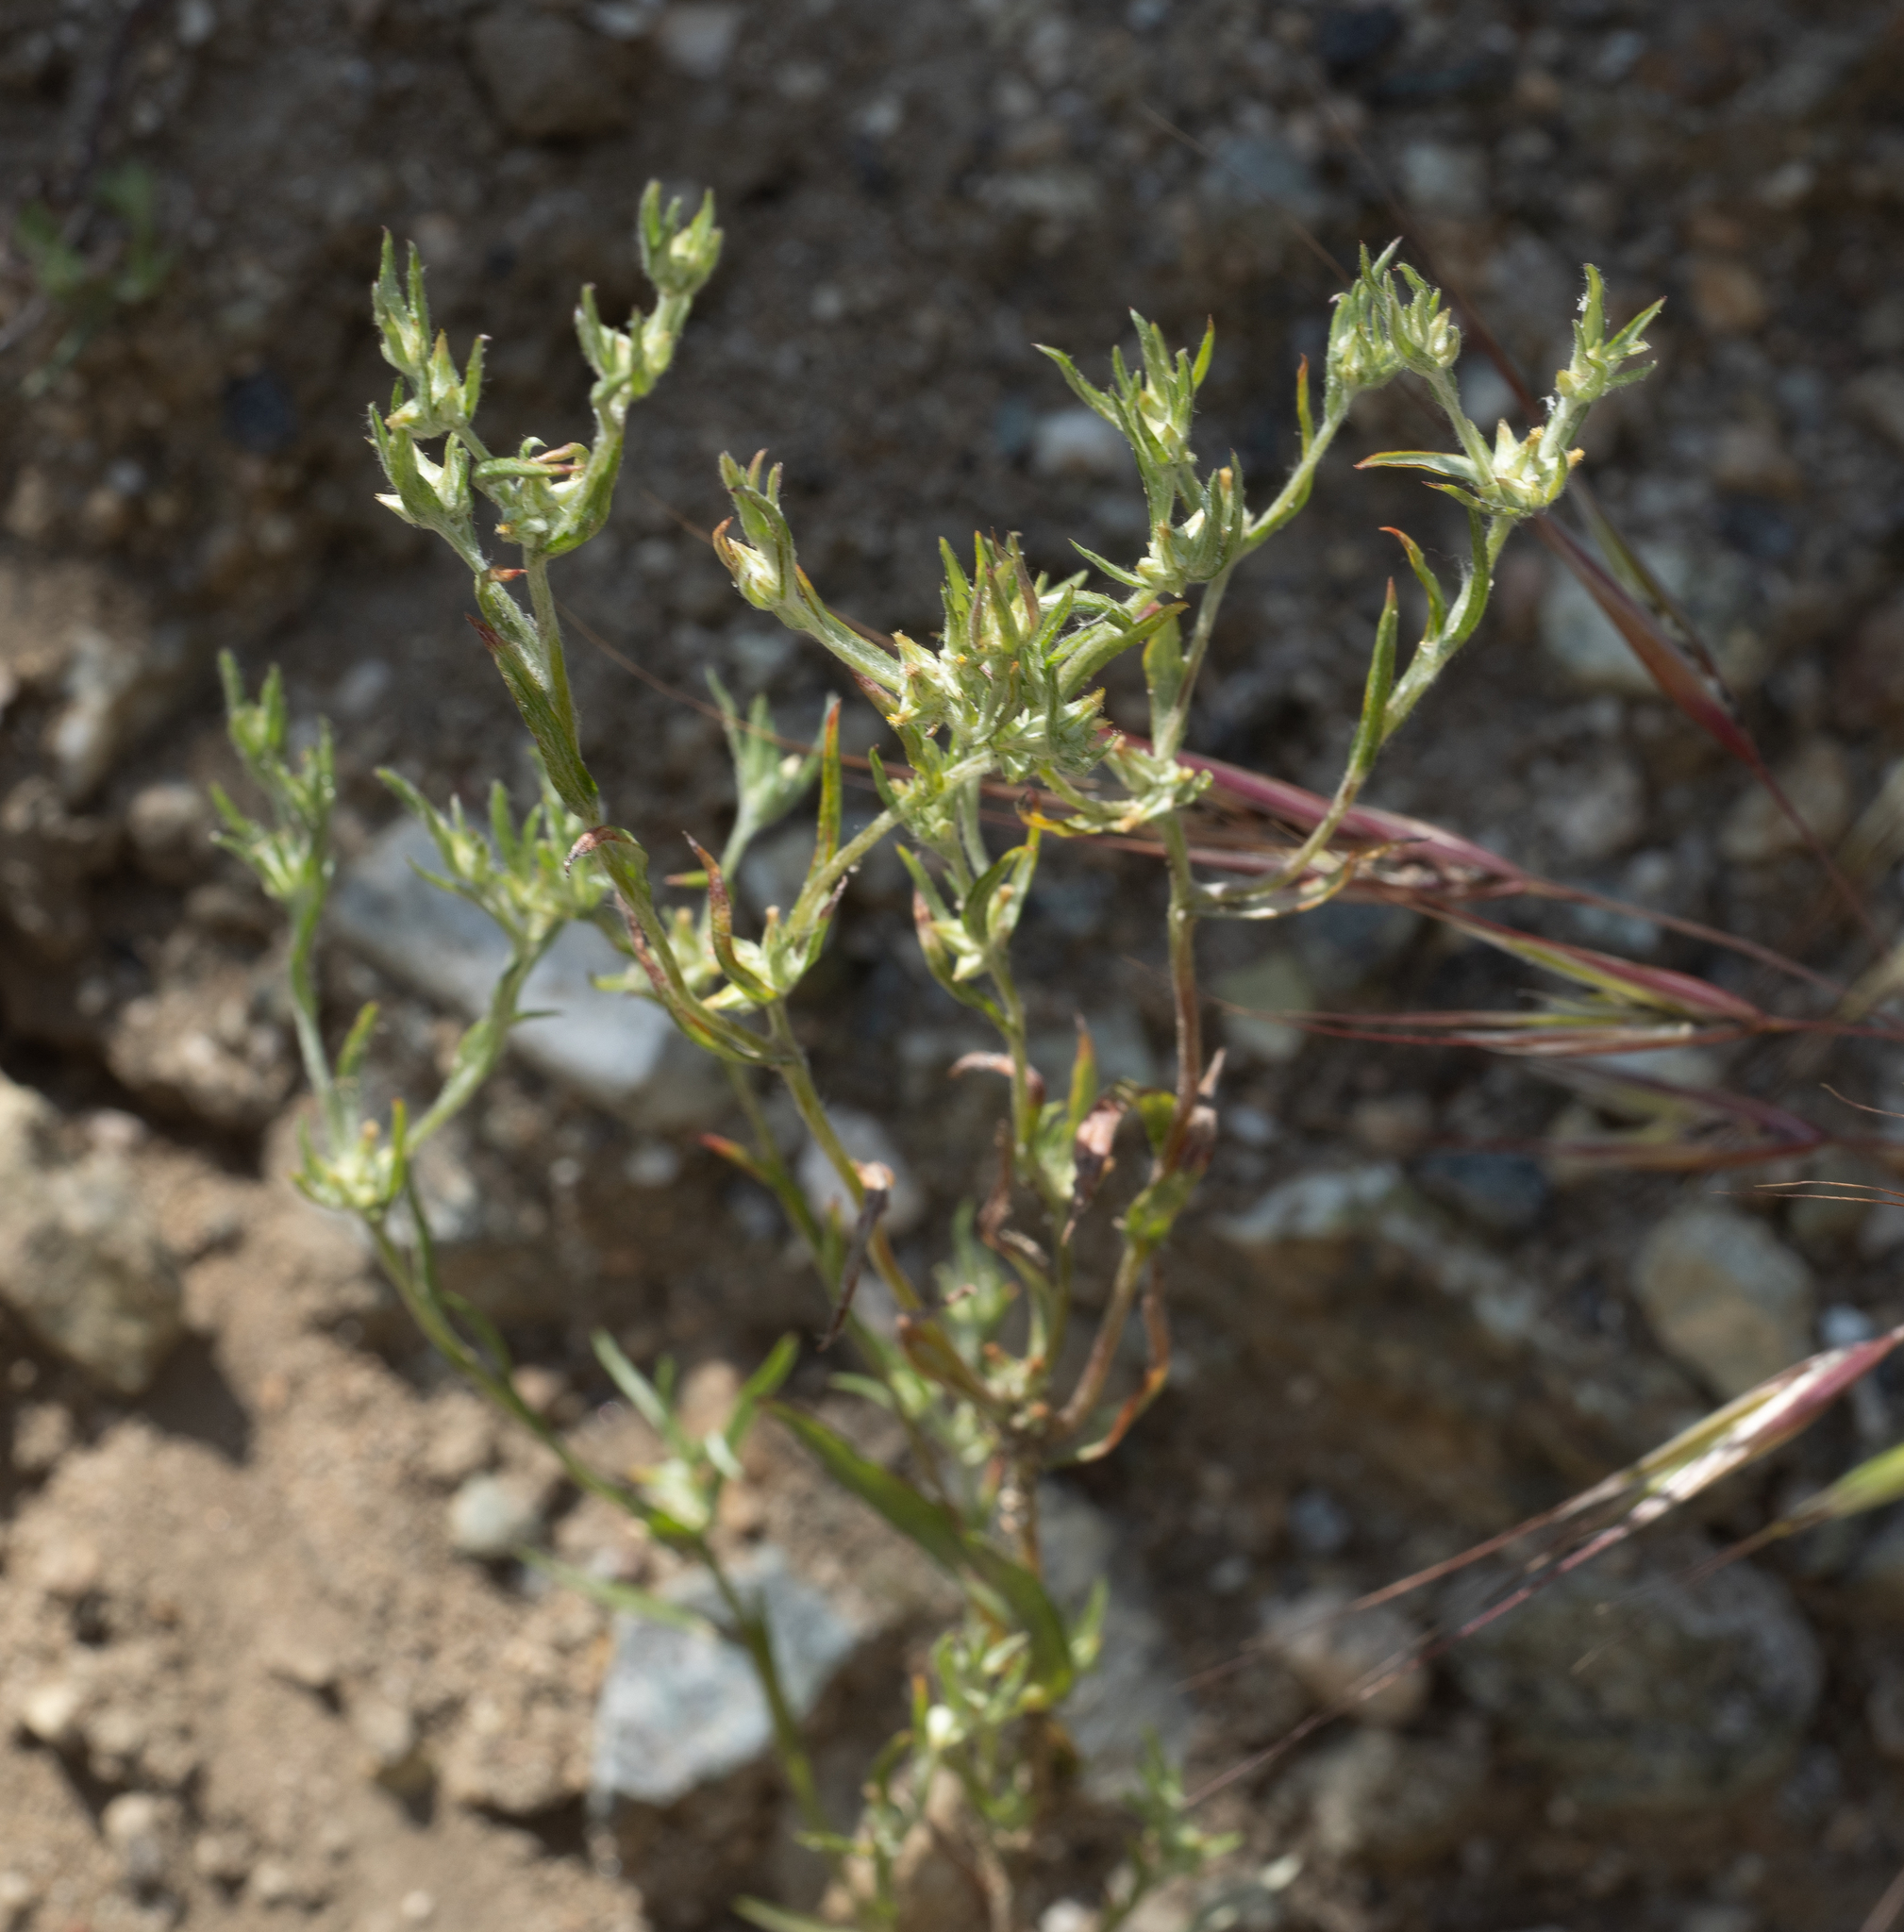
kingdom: Plantae
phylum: Tracheophyta
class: Magnoliopsida
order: Asterales
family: Asteraceae
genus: Logfia
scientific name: Logfia gallica
